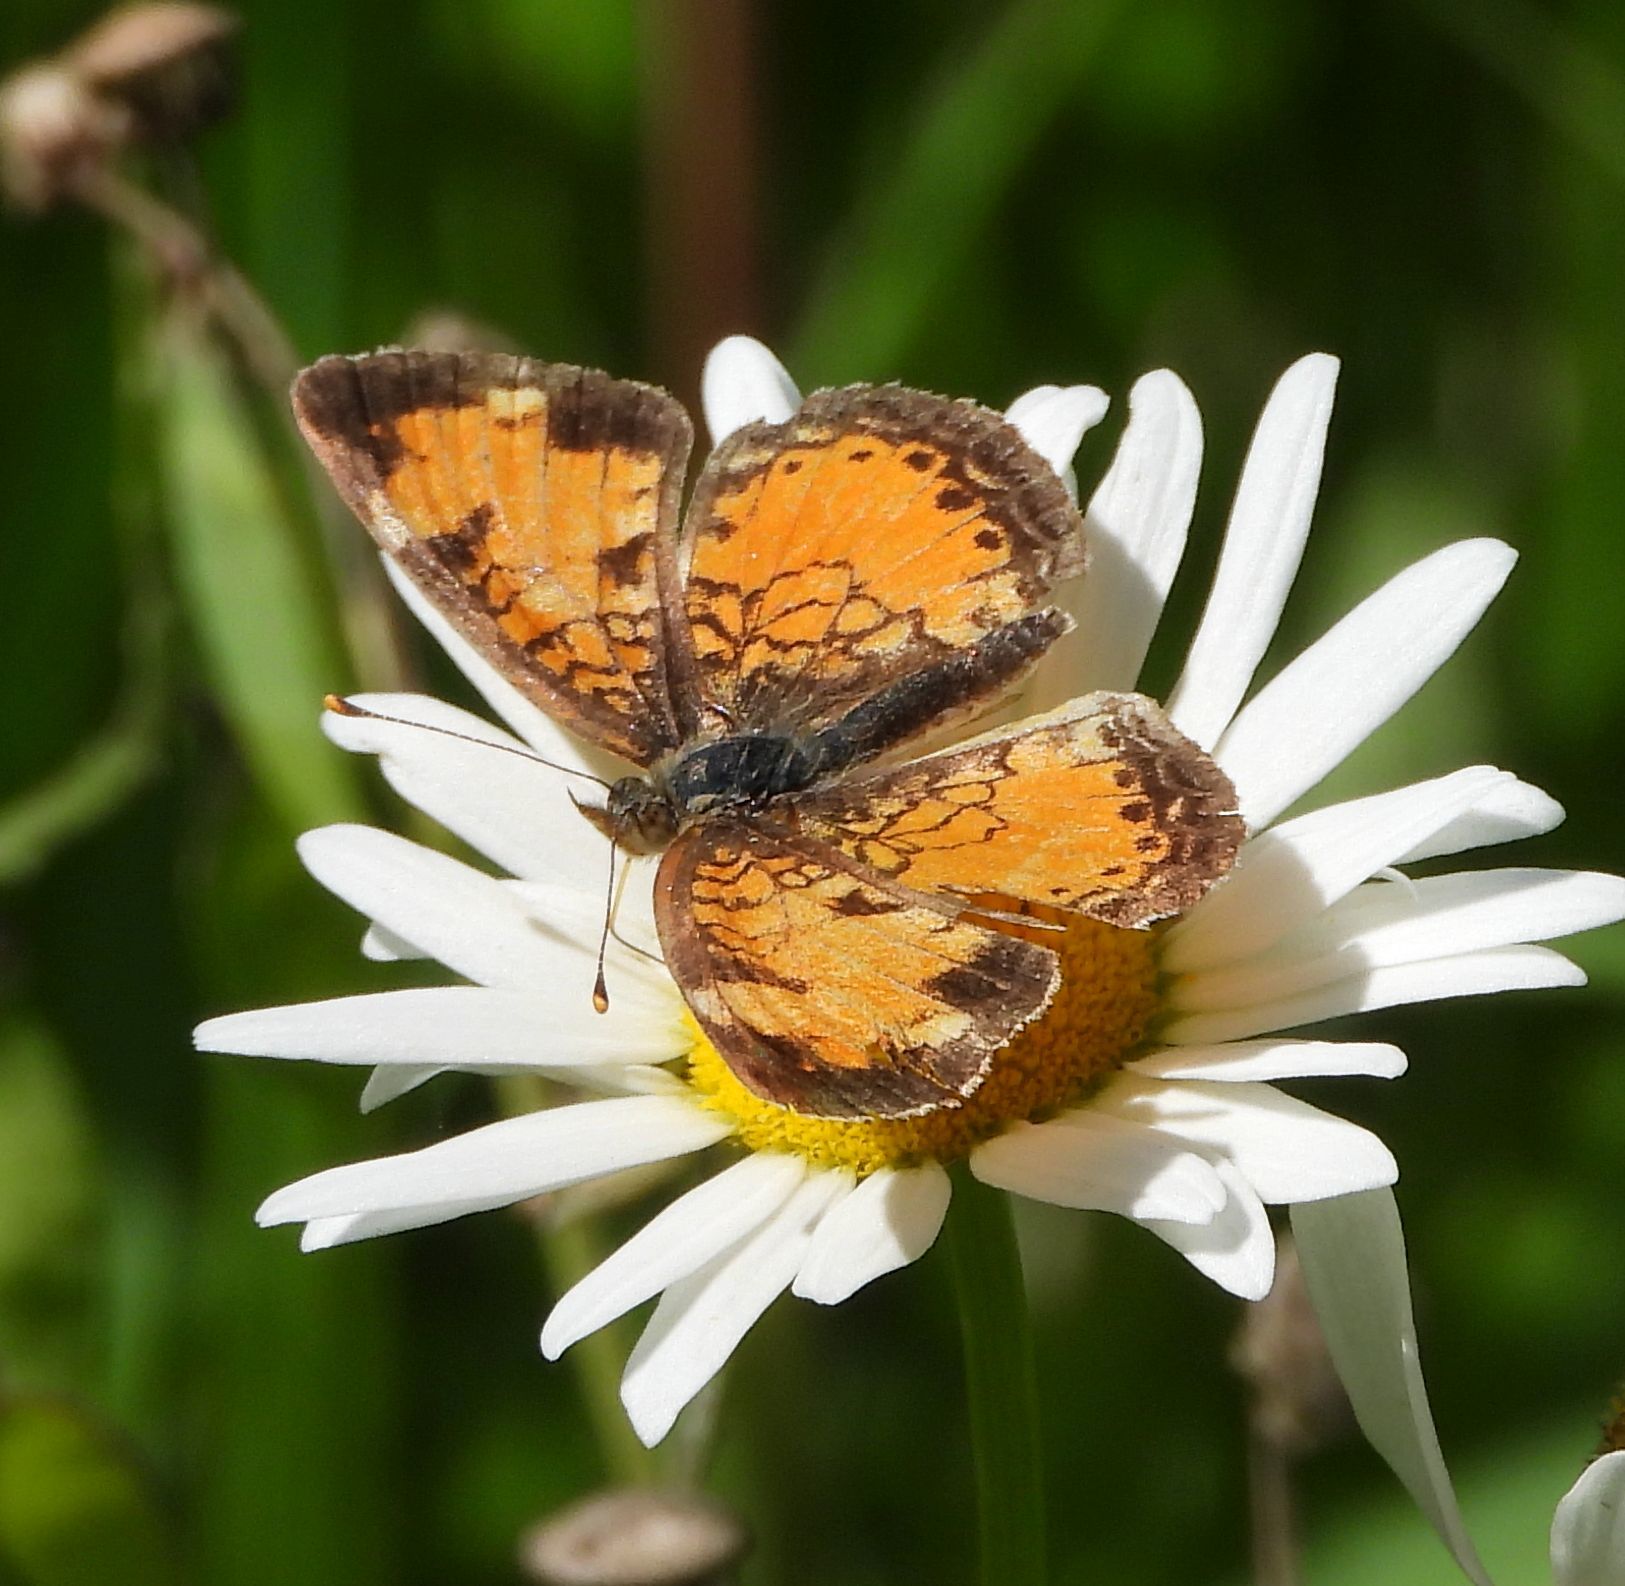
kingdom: Animalia
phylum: Arthropoda
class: Insecta
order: Lepidoptera
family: Nymphalidae
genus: Phyciodes
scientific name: Phyciodes tharos
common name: Pearl crescent
